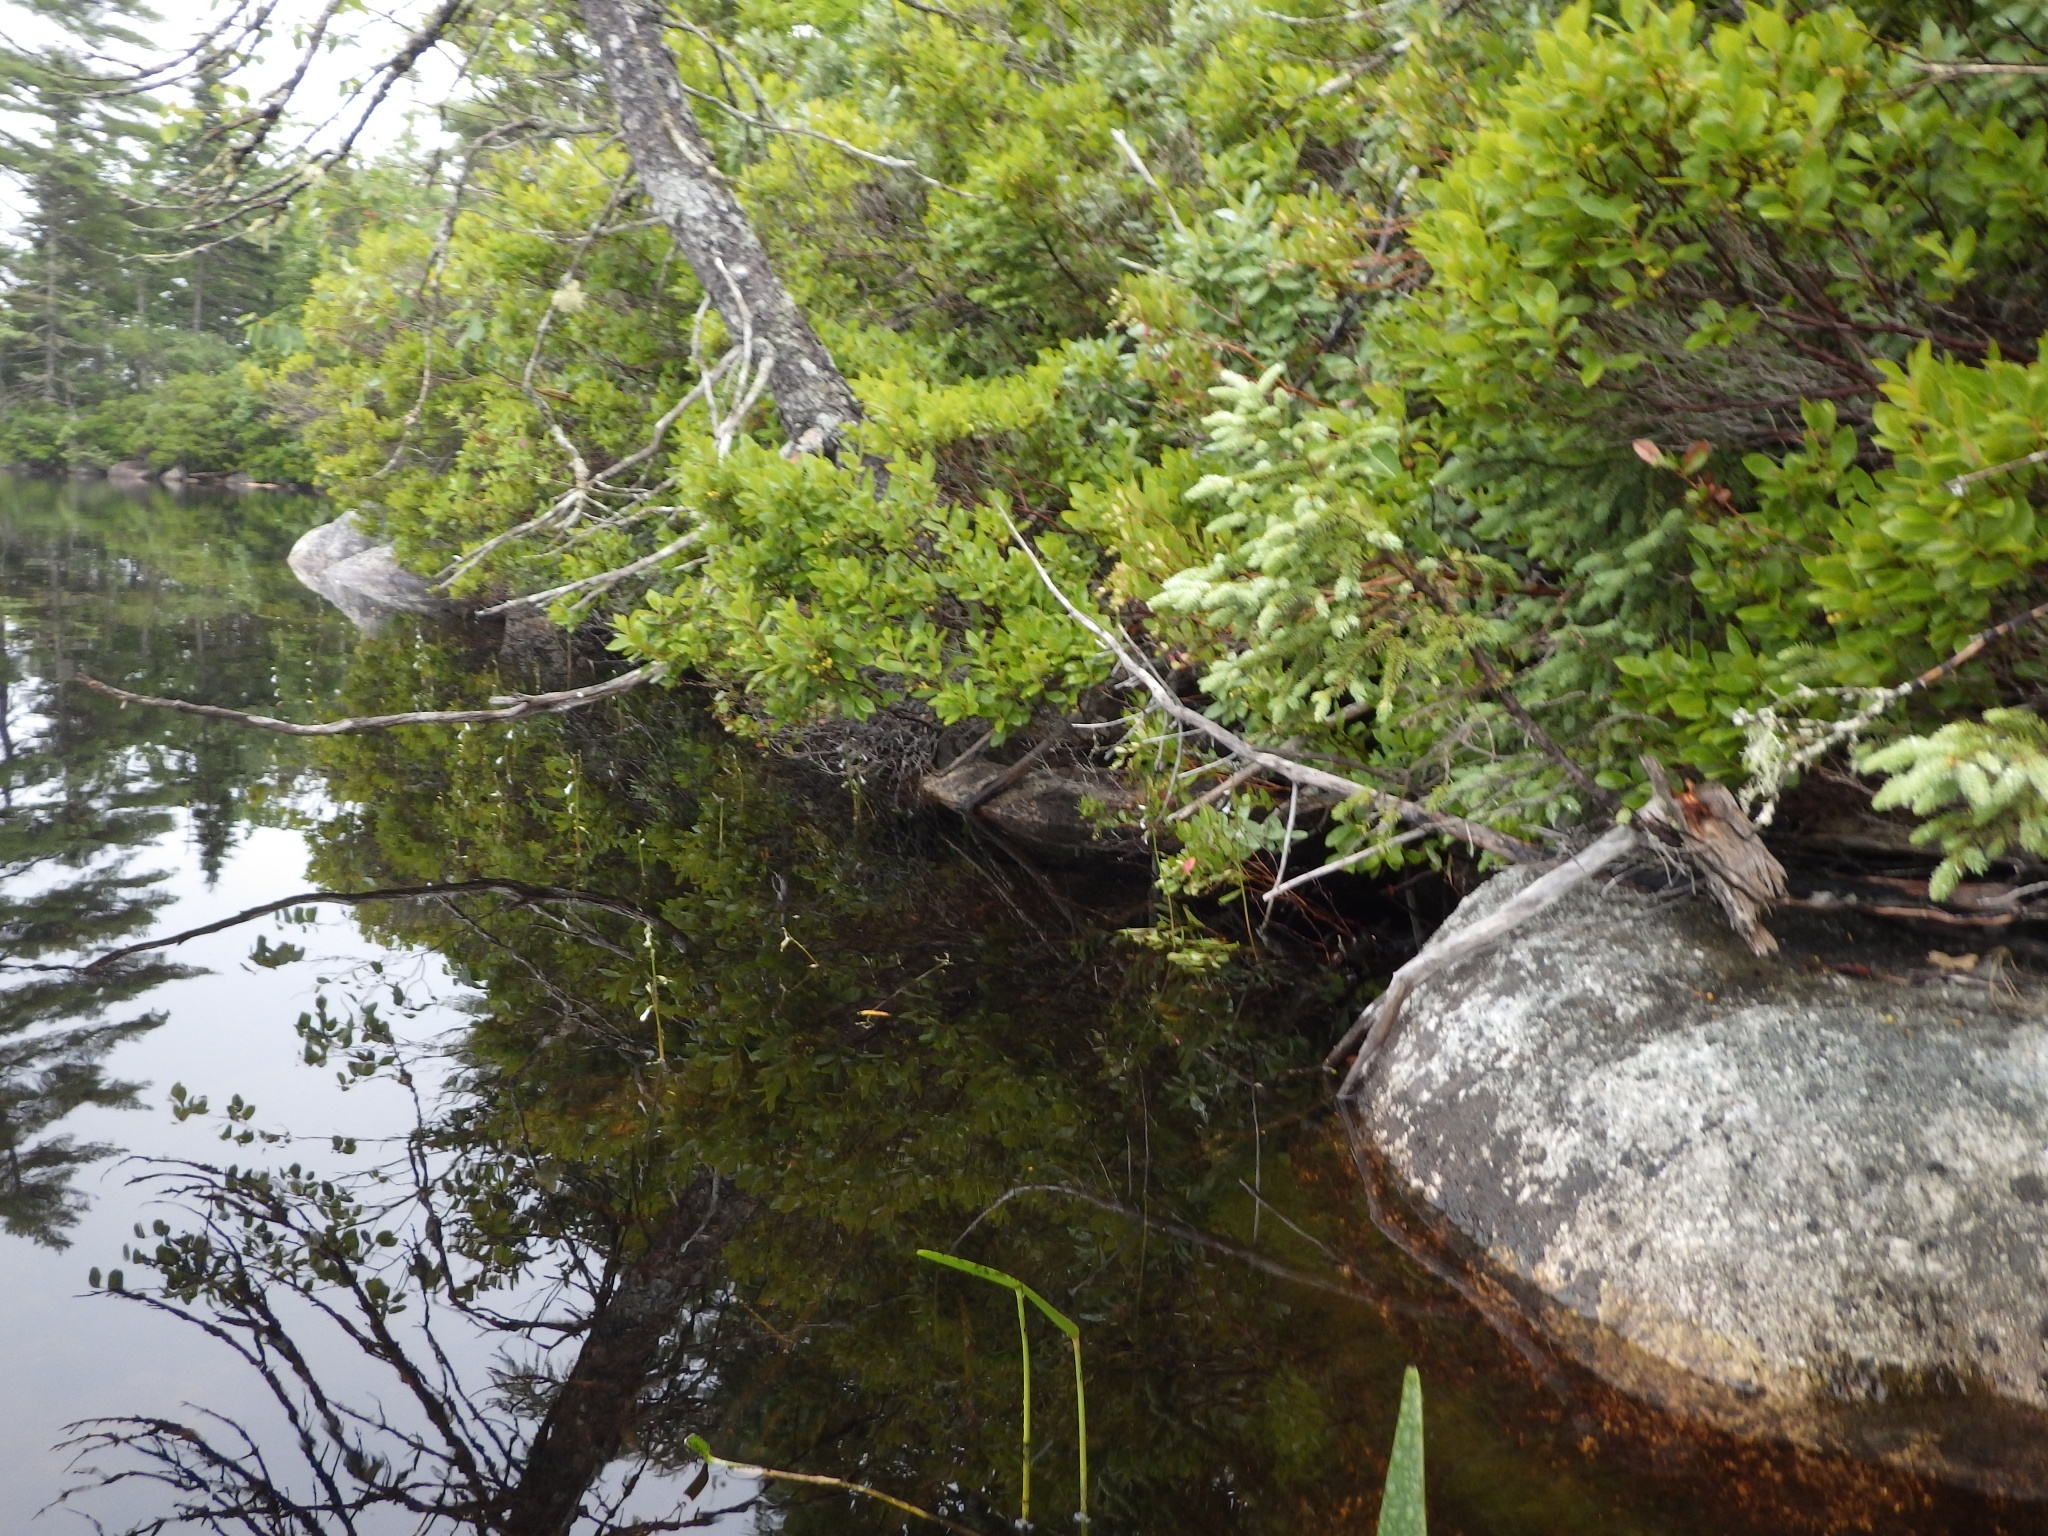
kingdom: Plantae
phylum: Tracheophyta
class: Magnoliopsida
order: Ericales
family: Ericaceae
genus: Gaylussacia
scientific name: Gaylussacia baccata
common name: Black huckleberry
